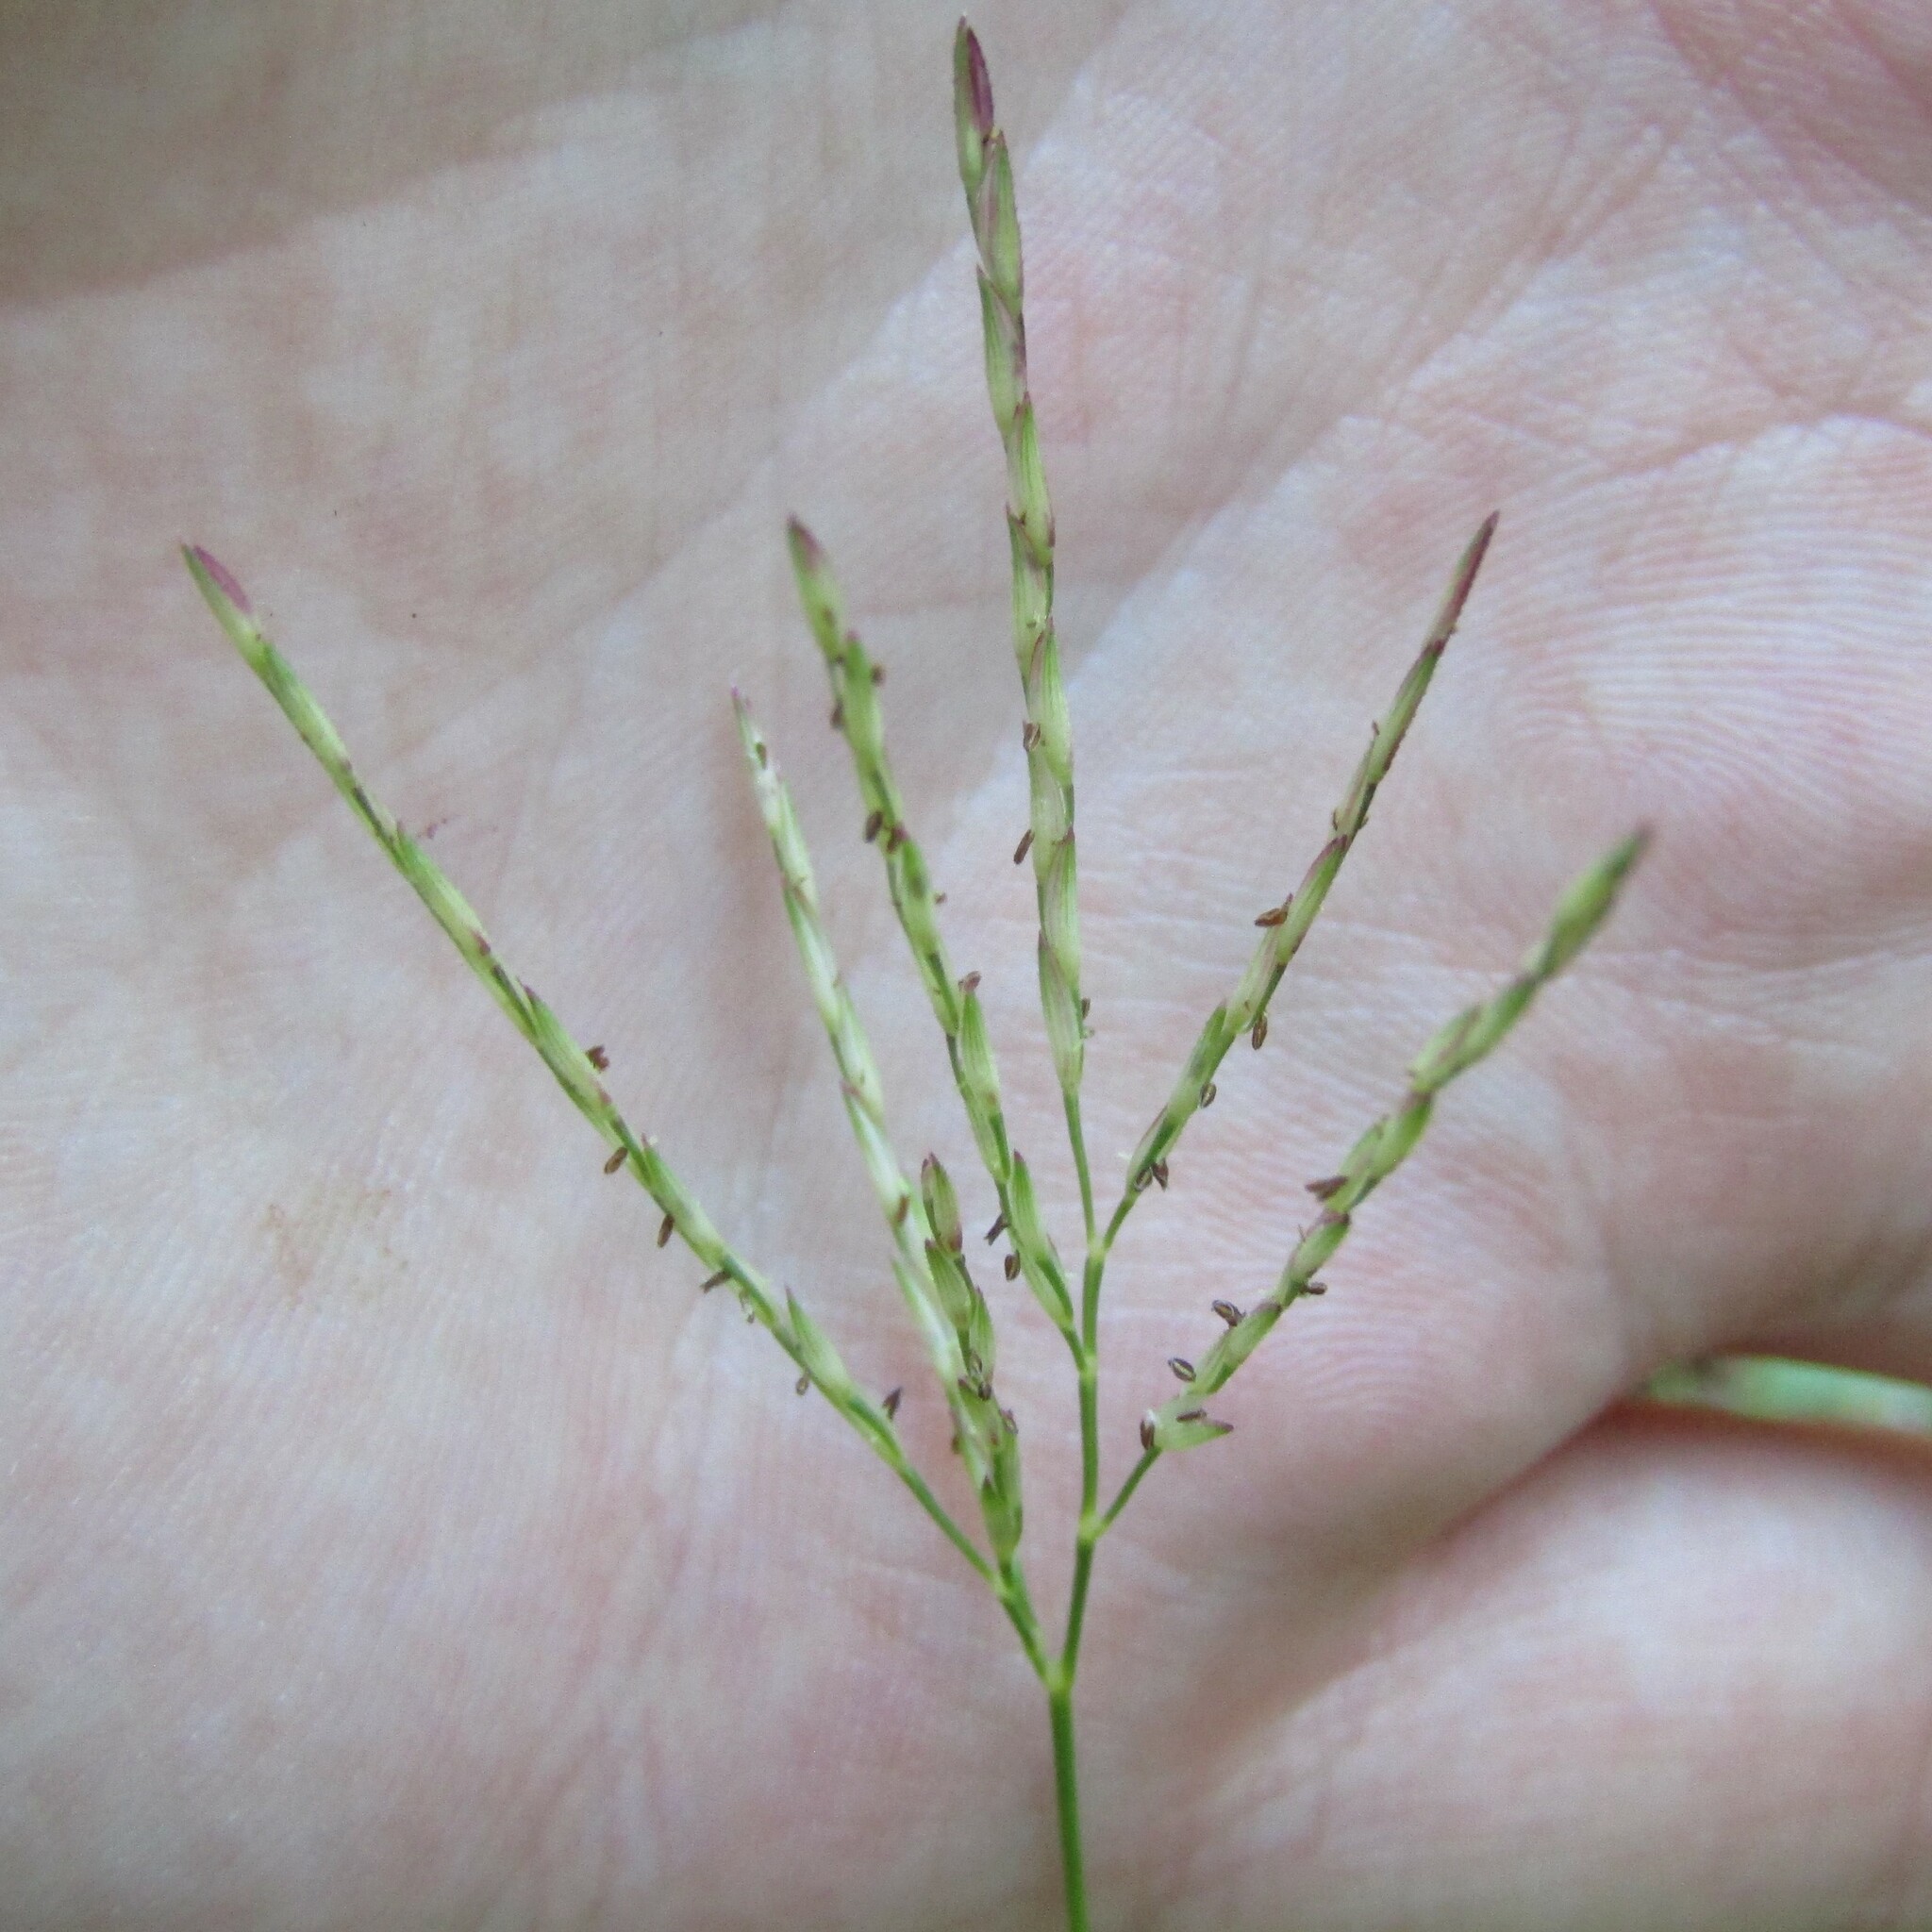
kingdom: Plantae
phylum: Tracheophyta
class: Liliopsida
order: Poales
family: Poaceae
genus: Arthraxon
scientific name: Arthraxon hispidus
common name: Small carpgrass
